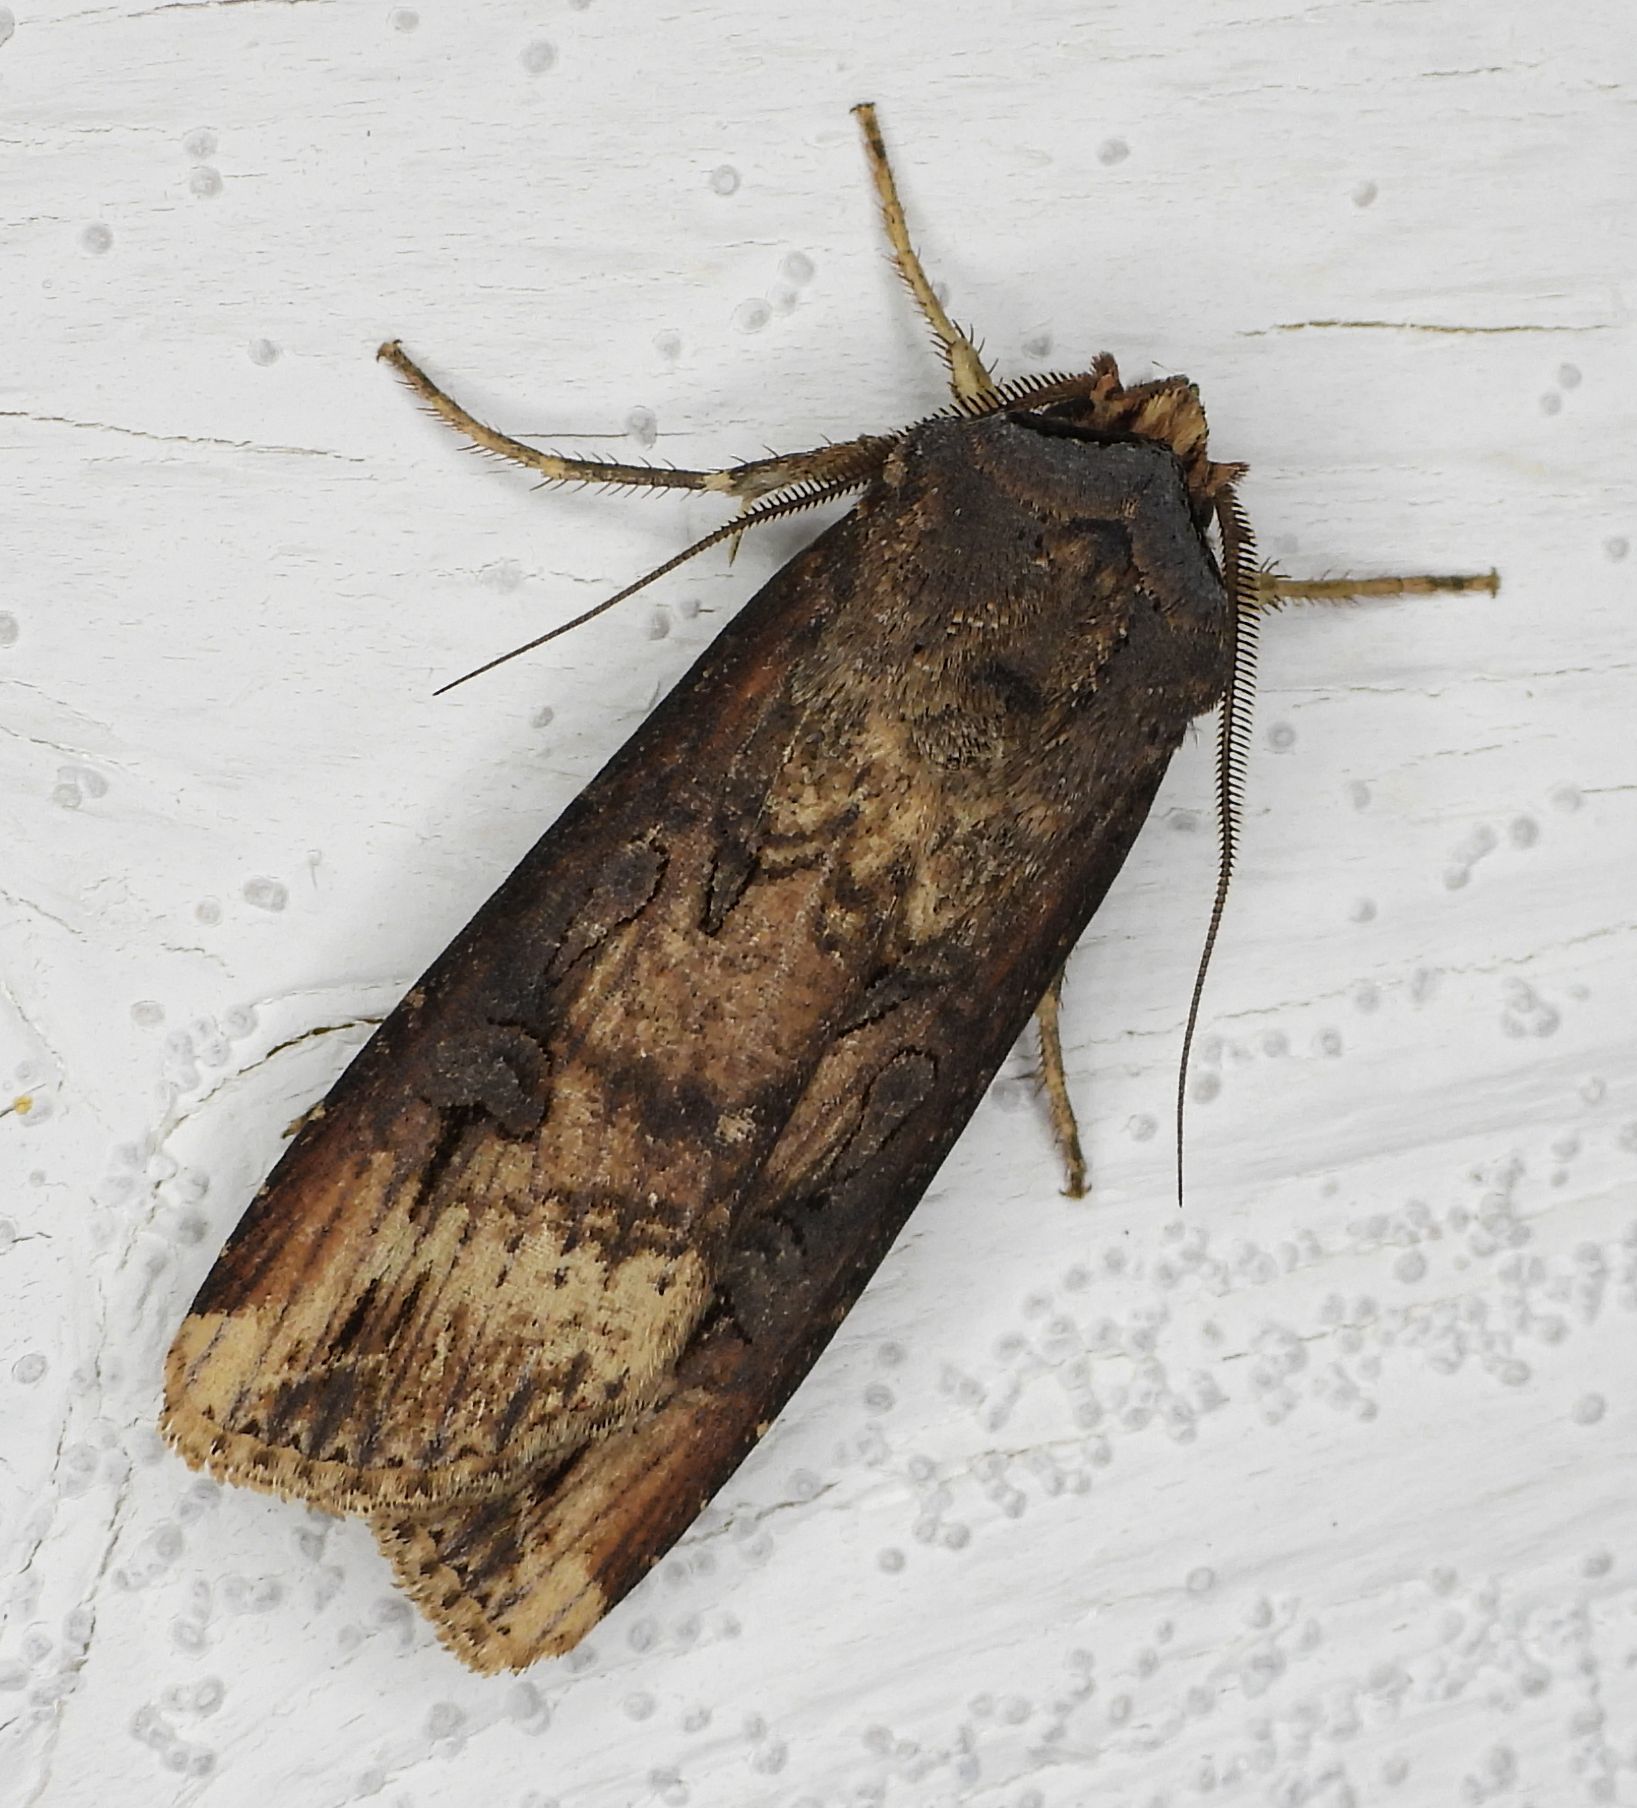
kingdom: Animalia
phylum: Arthropoda
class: Insecta
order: Lepidoptera
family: Noctuidae
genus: Agrotis
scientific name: Agrotis ipsilon
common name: Dark sword-grass
